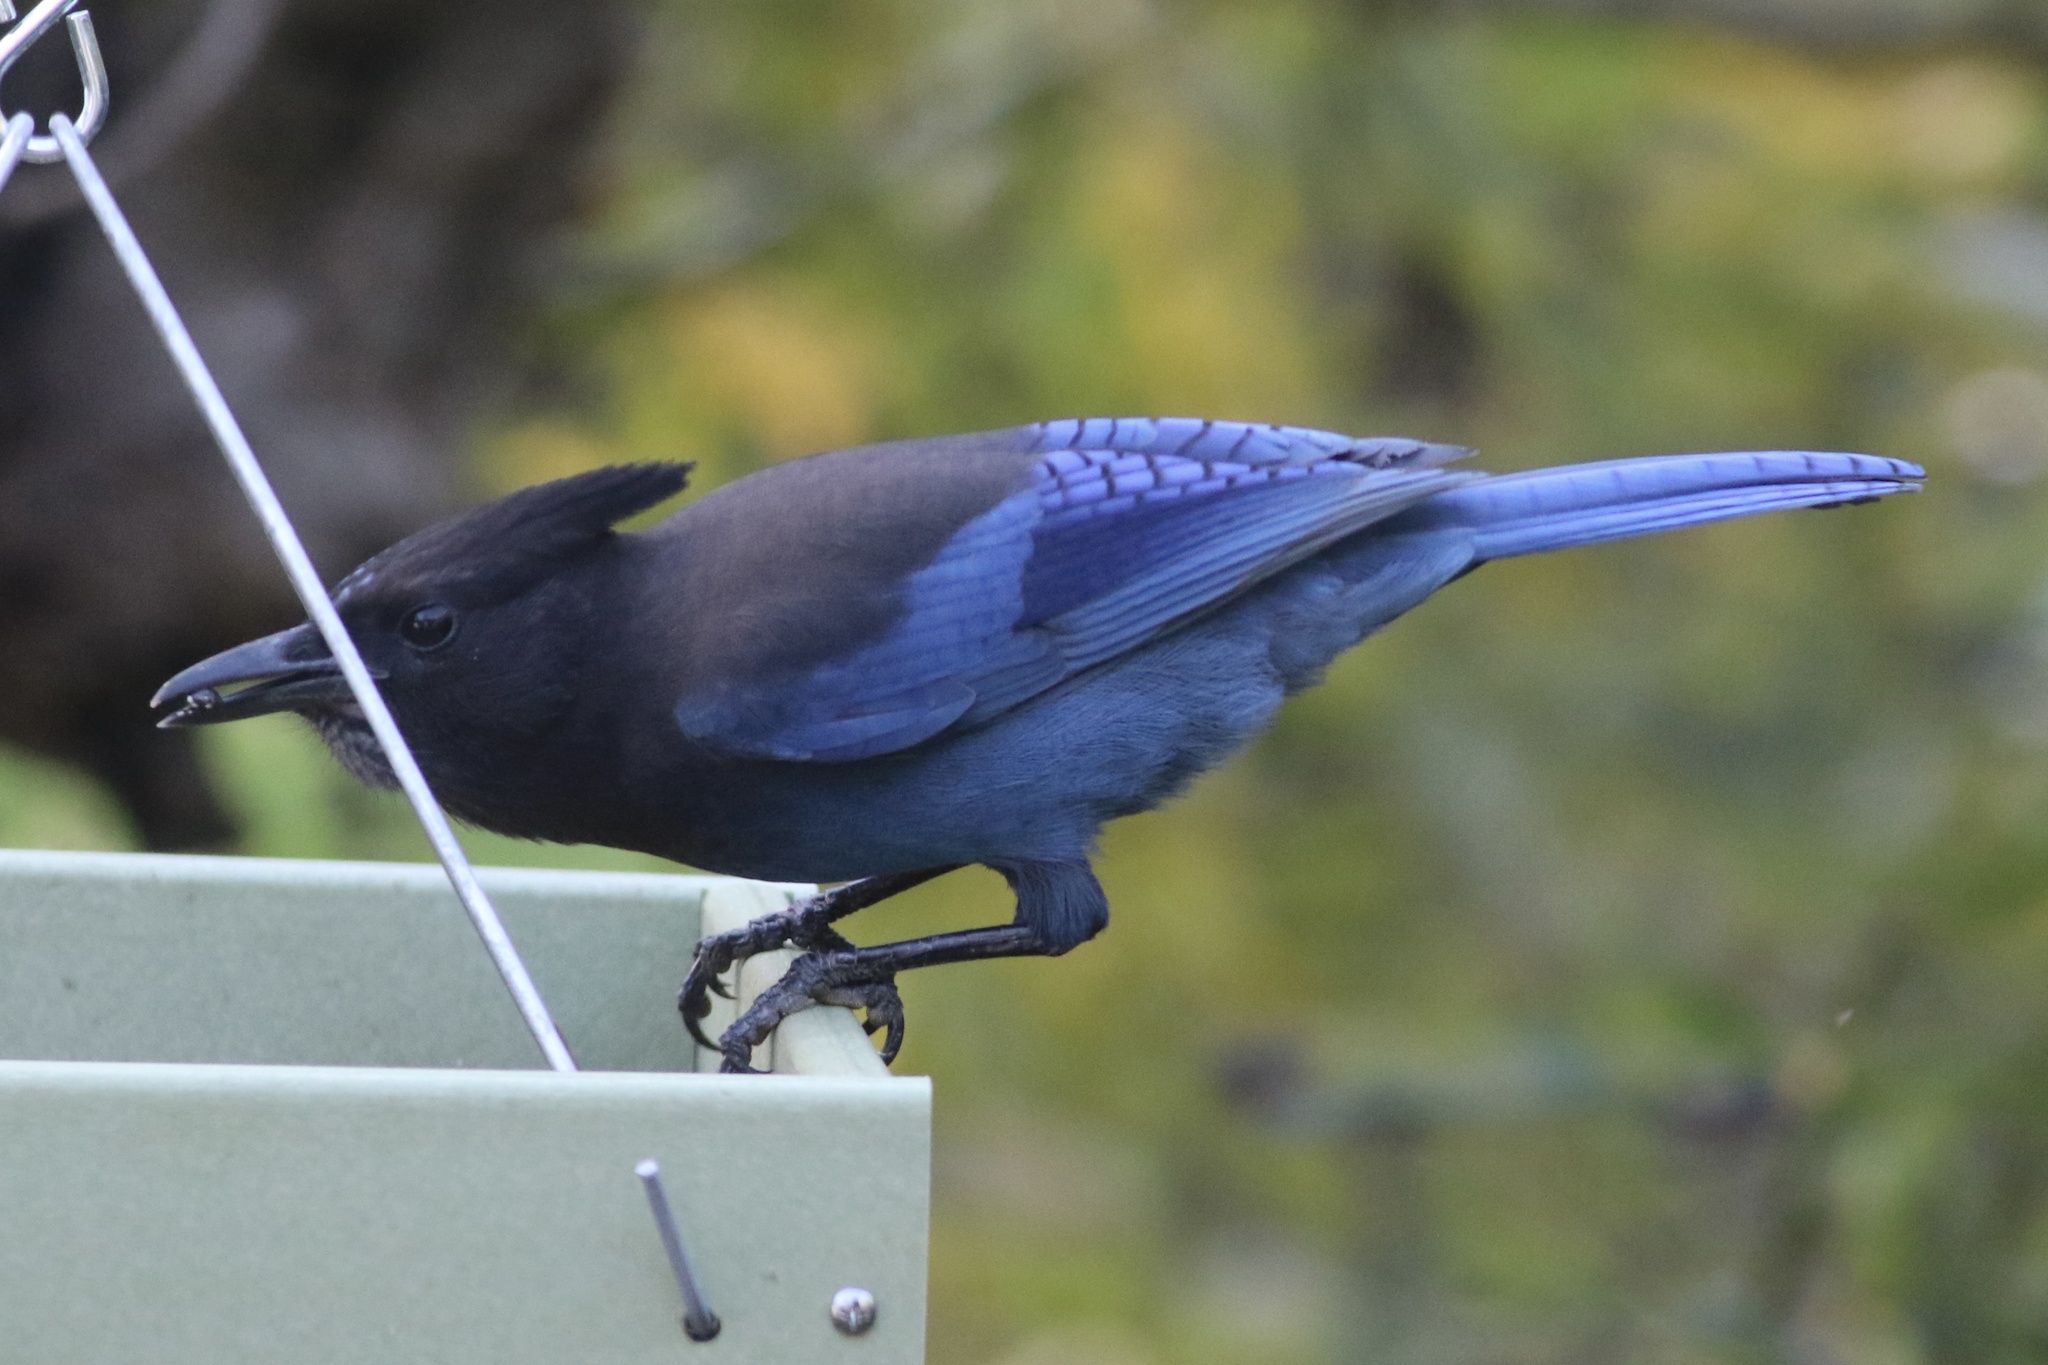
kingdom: Animalia
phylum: Chordata
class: Aves
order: Passeriformes
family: Corvidae
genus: Cyanocitta
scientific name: Cyanocitta stelleri
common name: Steller's jay
